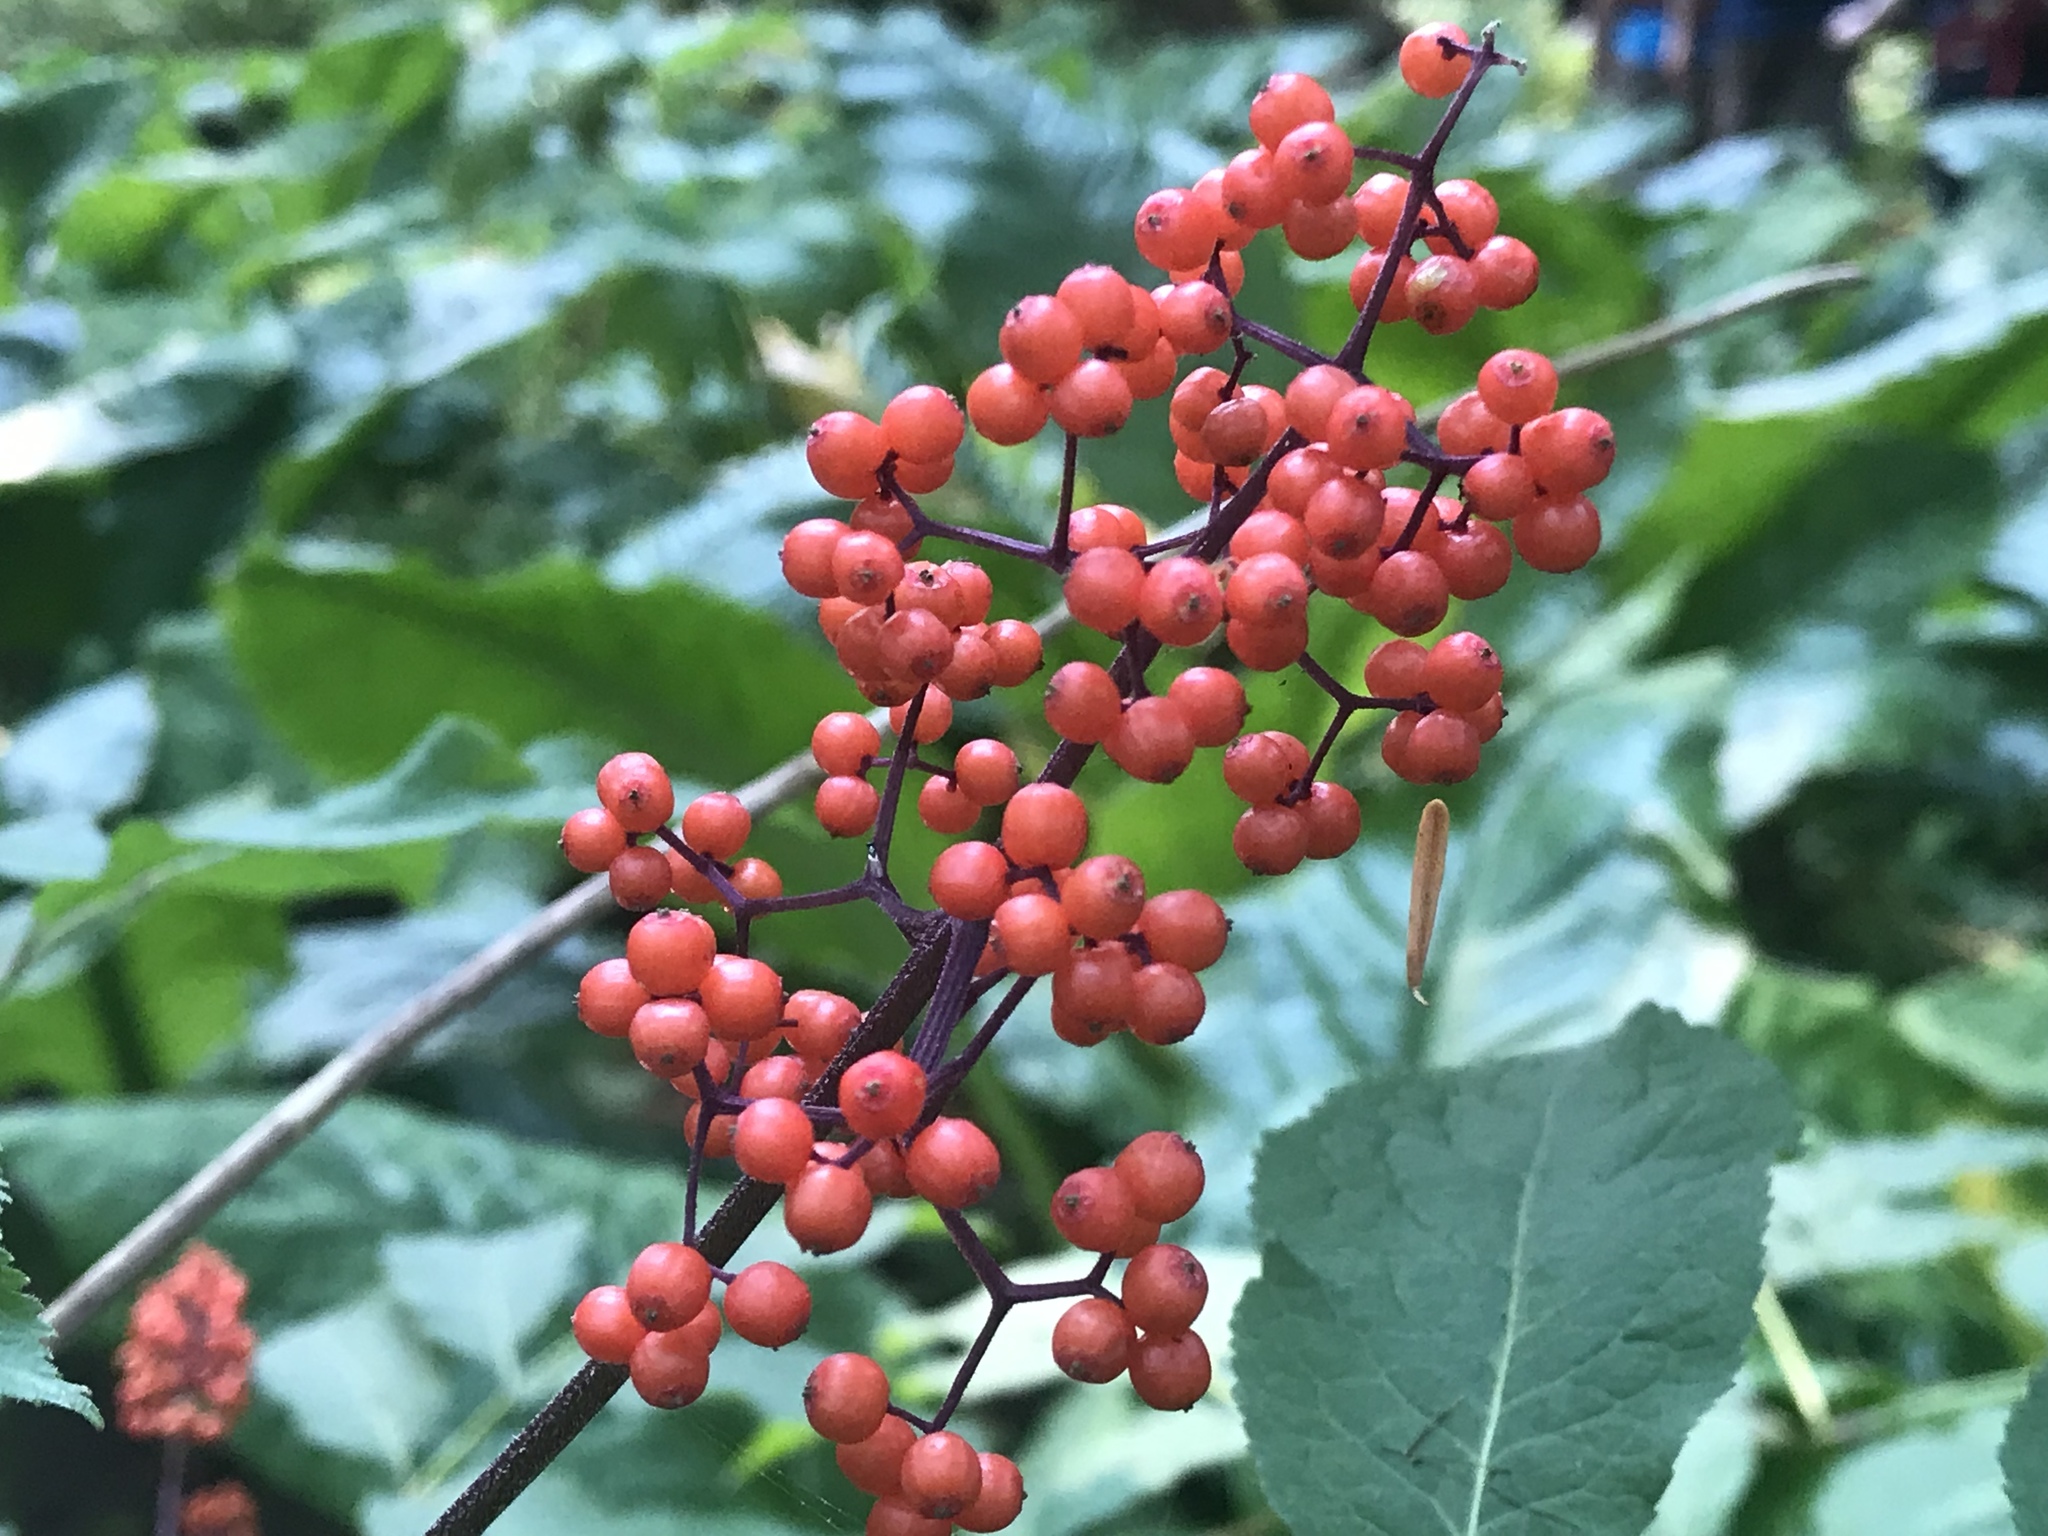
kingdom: Plantae
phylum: Tracheophyta
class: Magnoliopsida
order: Dipsacales
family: Viburnaceae
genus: Sambucus
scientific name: Sambucus racemosa
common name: Red-berried elder
